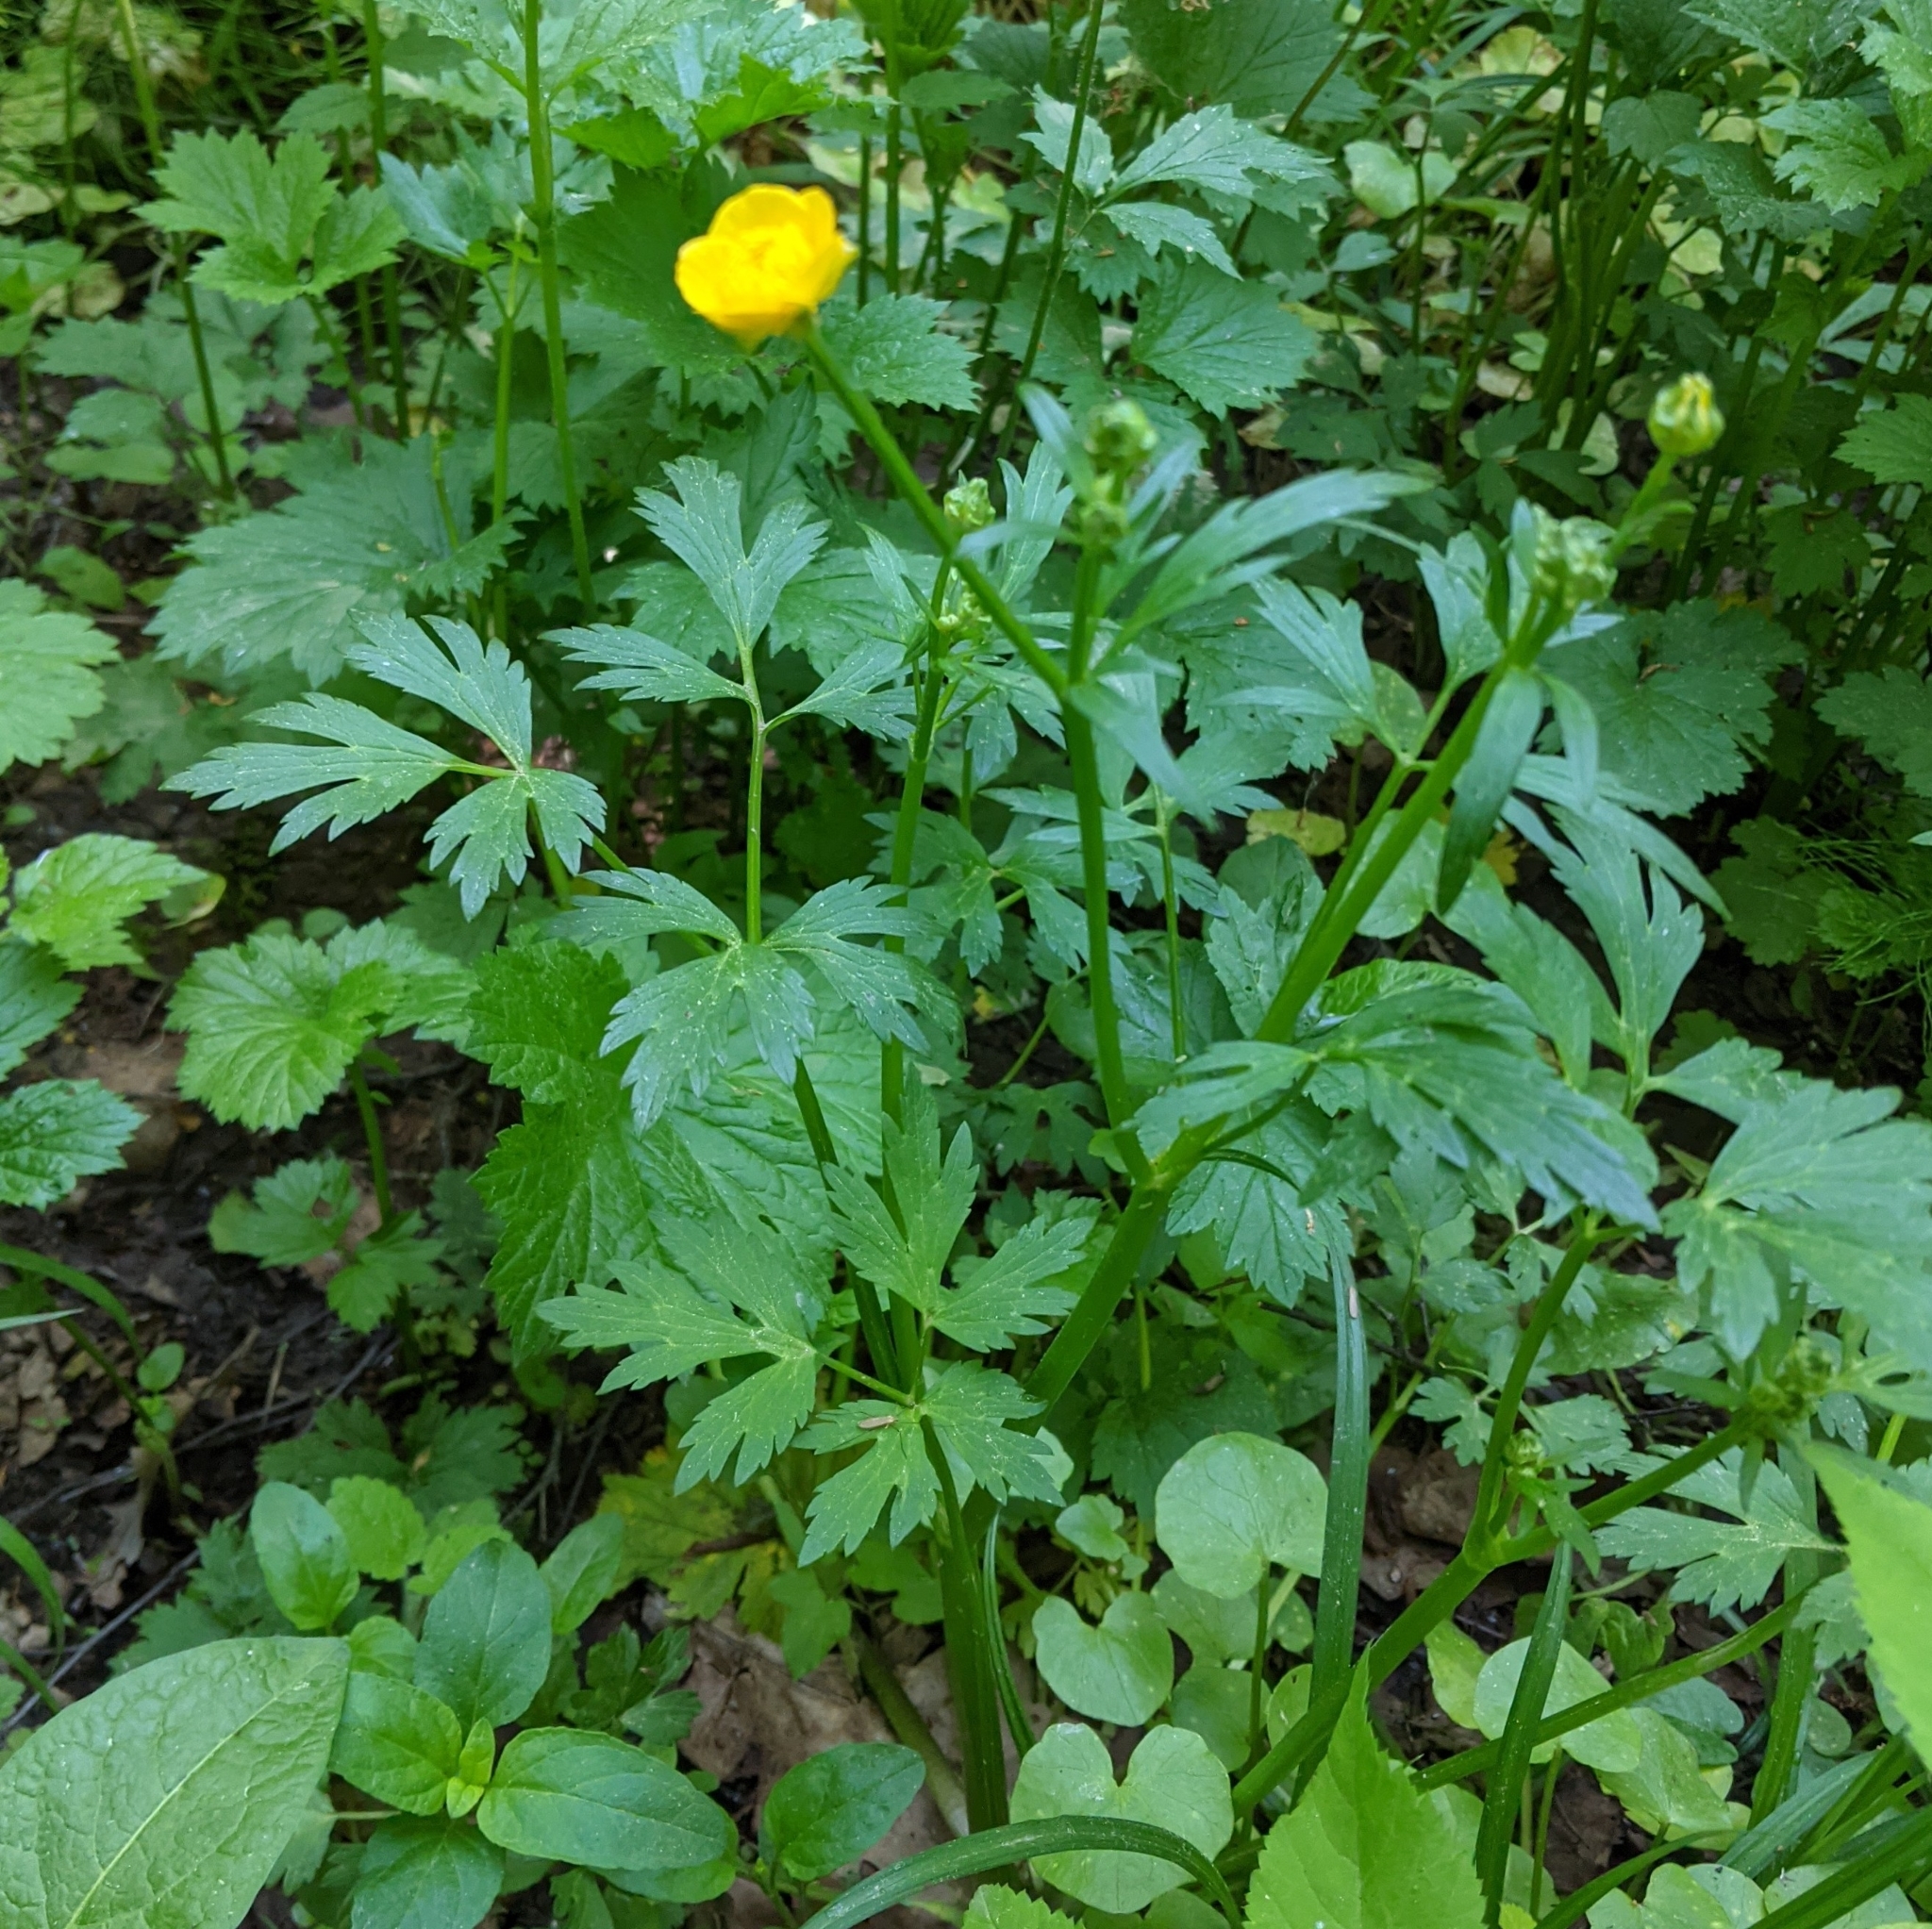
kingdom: Plantae
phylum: Tracheophyta
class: Magnoliopsida
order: Ranunculales
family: Ranunculaceae
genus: Ranunculus
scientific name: Ranunculus repens
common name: Creeping buttercup
